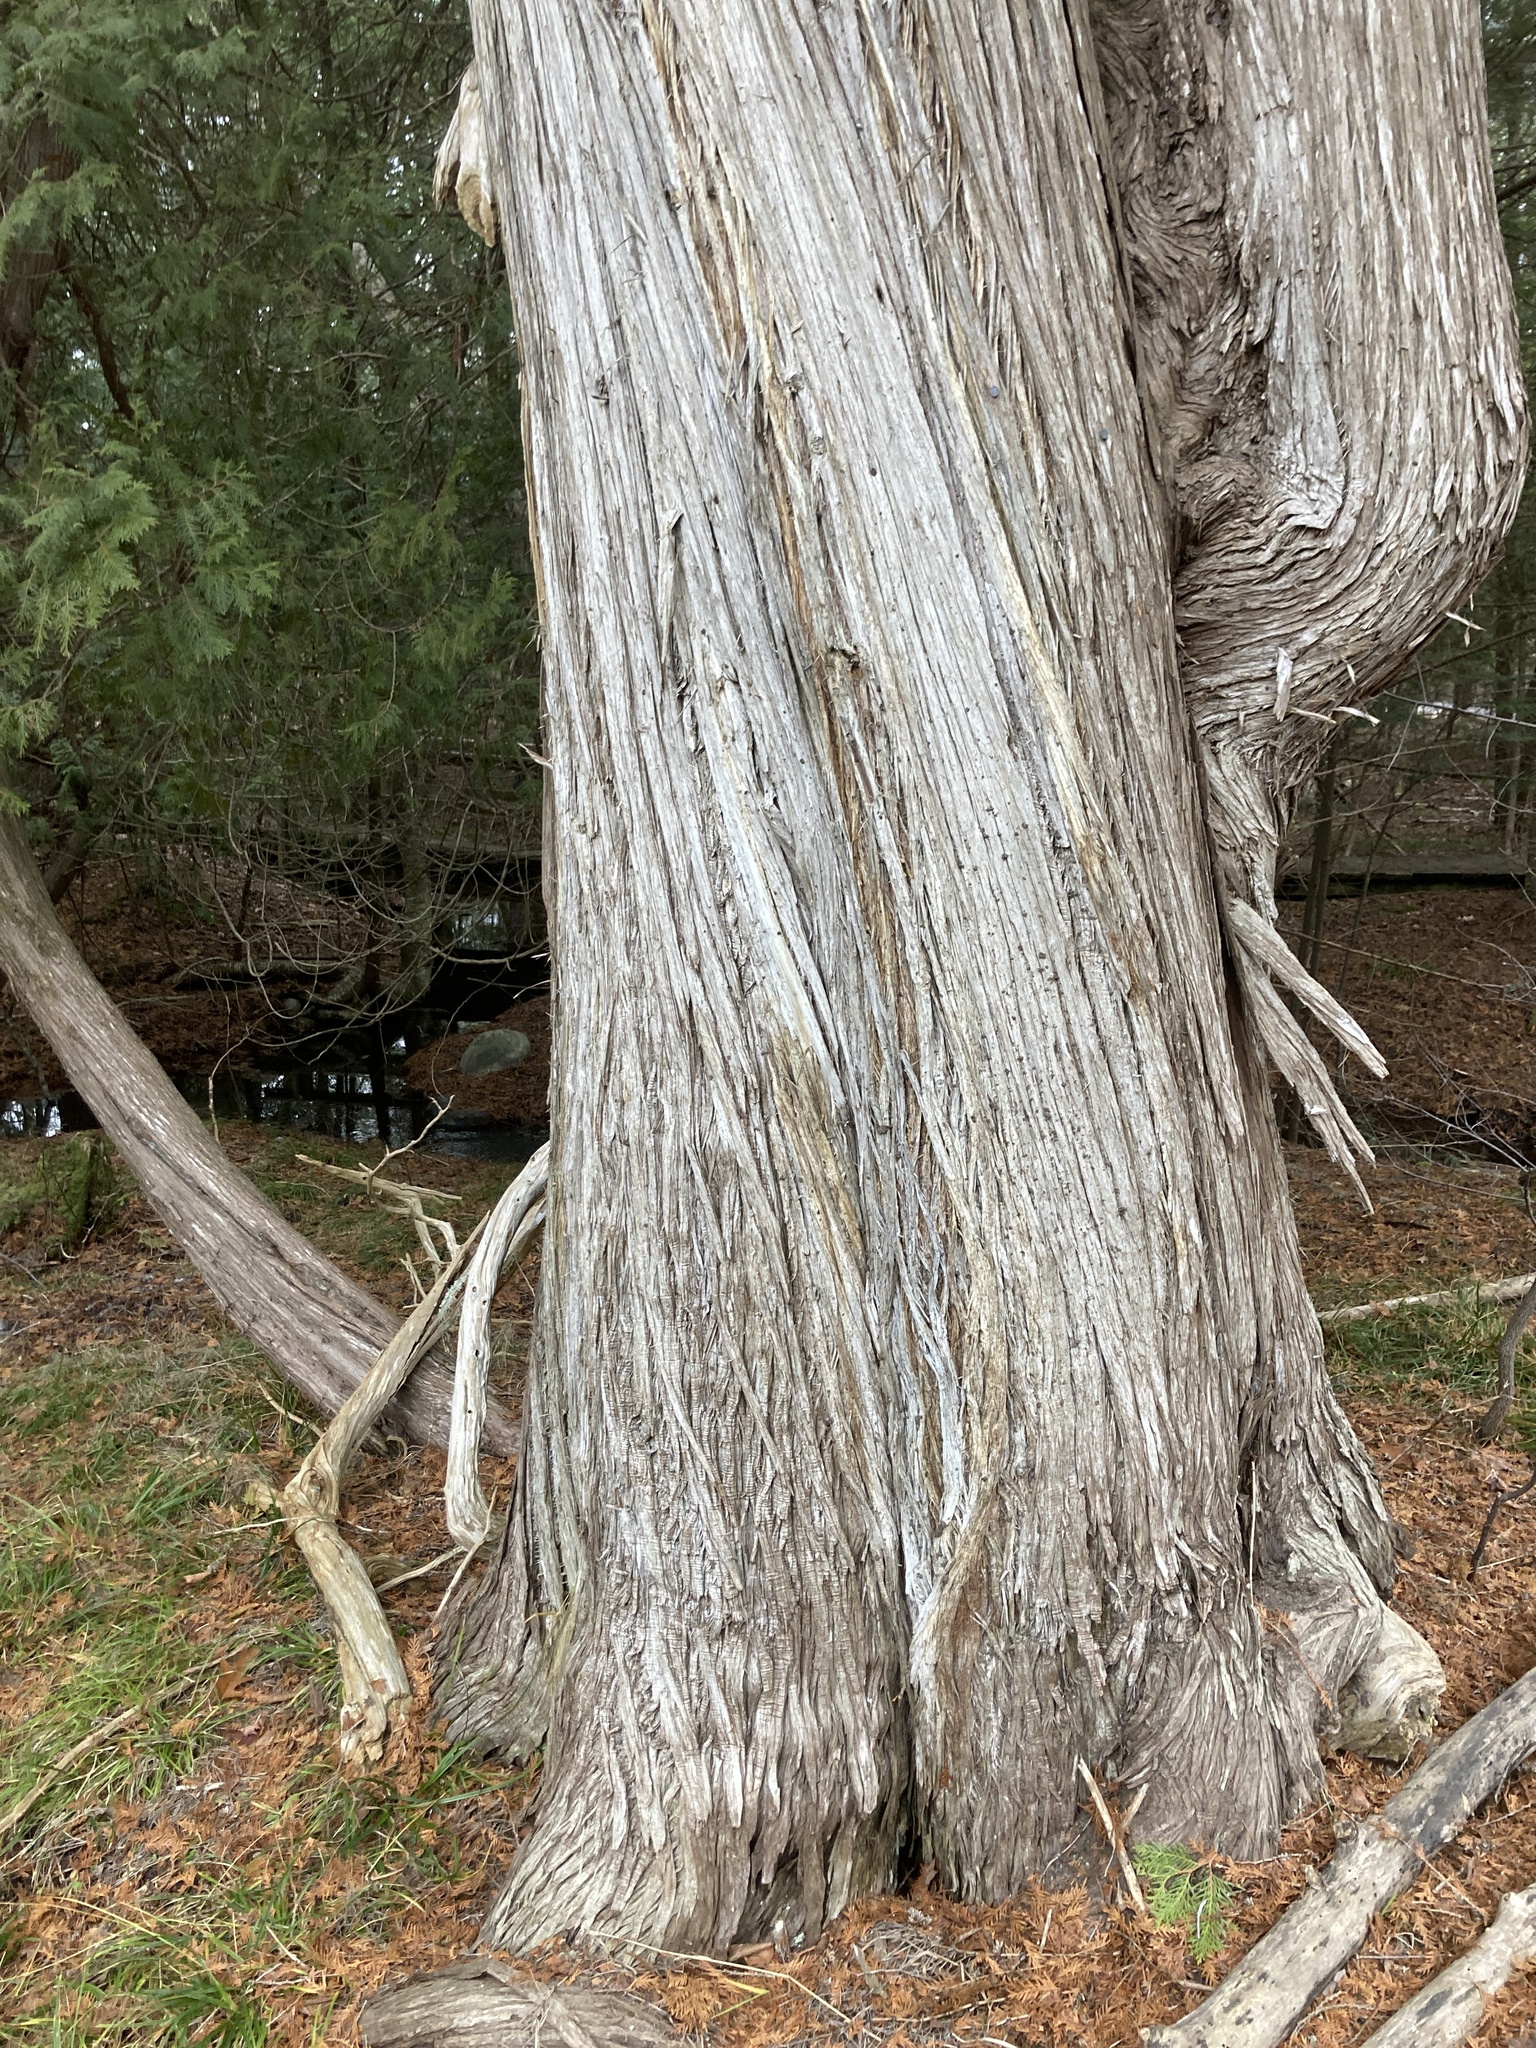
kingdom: Plantae
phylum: Tracheophyta
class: Pinopsida
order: Pinales
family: Cupressaceae
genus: Thuja
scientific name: Thuja occidentalis
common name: Northern white-cedar
